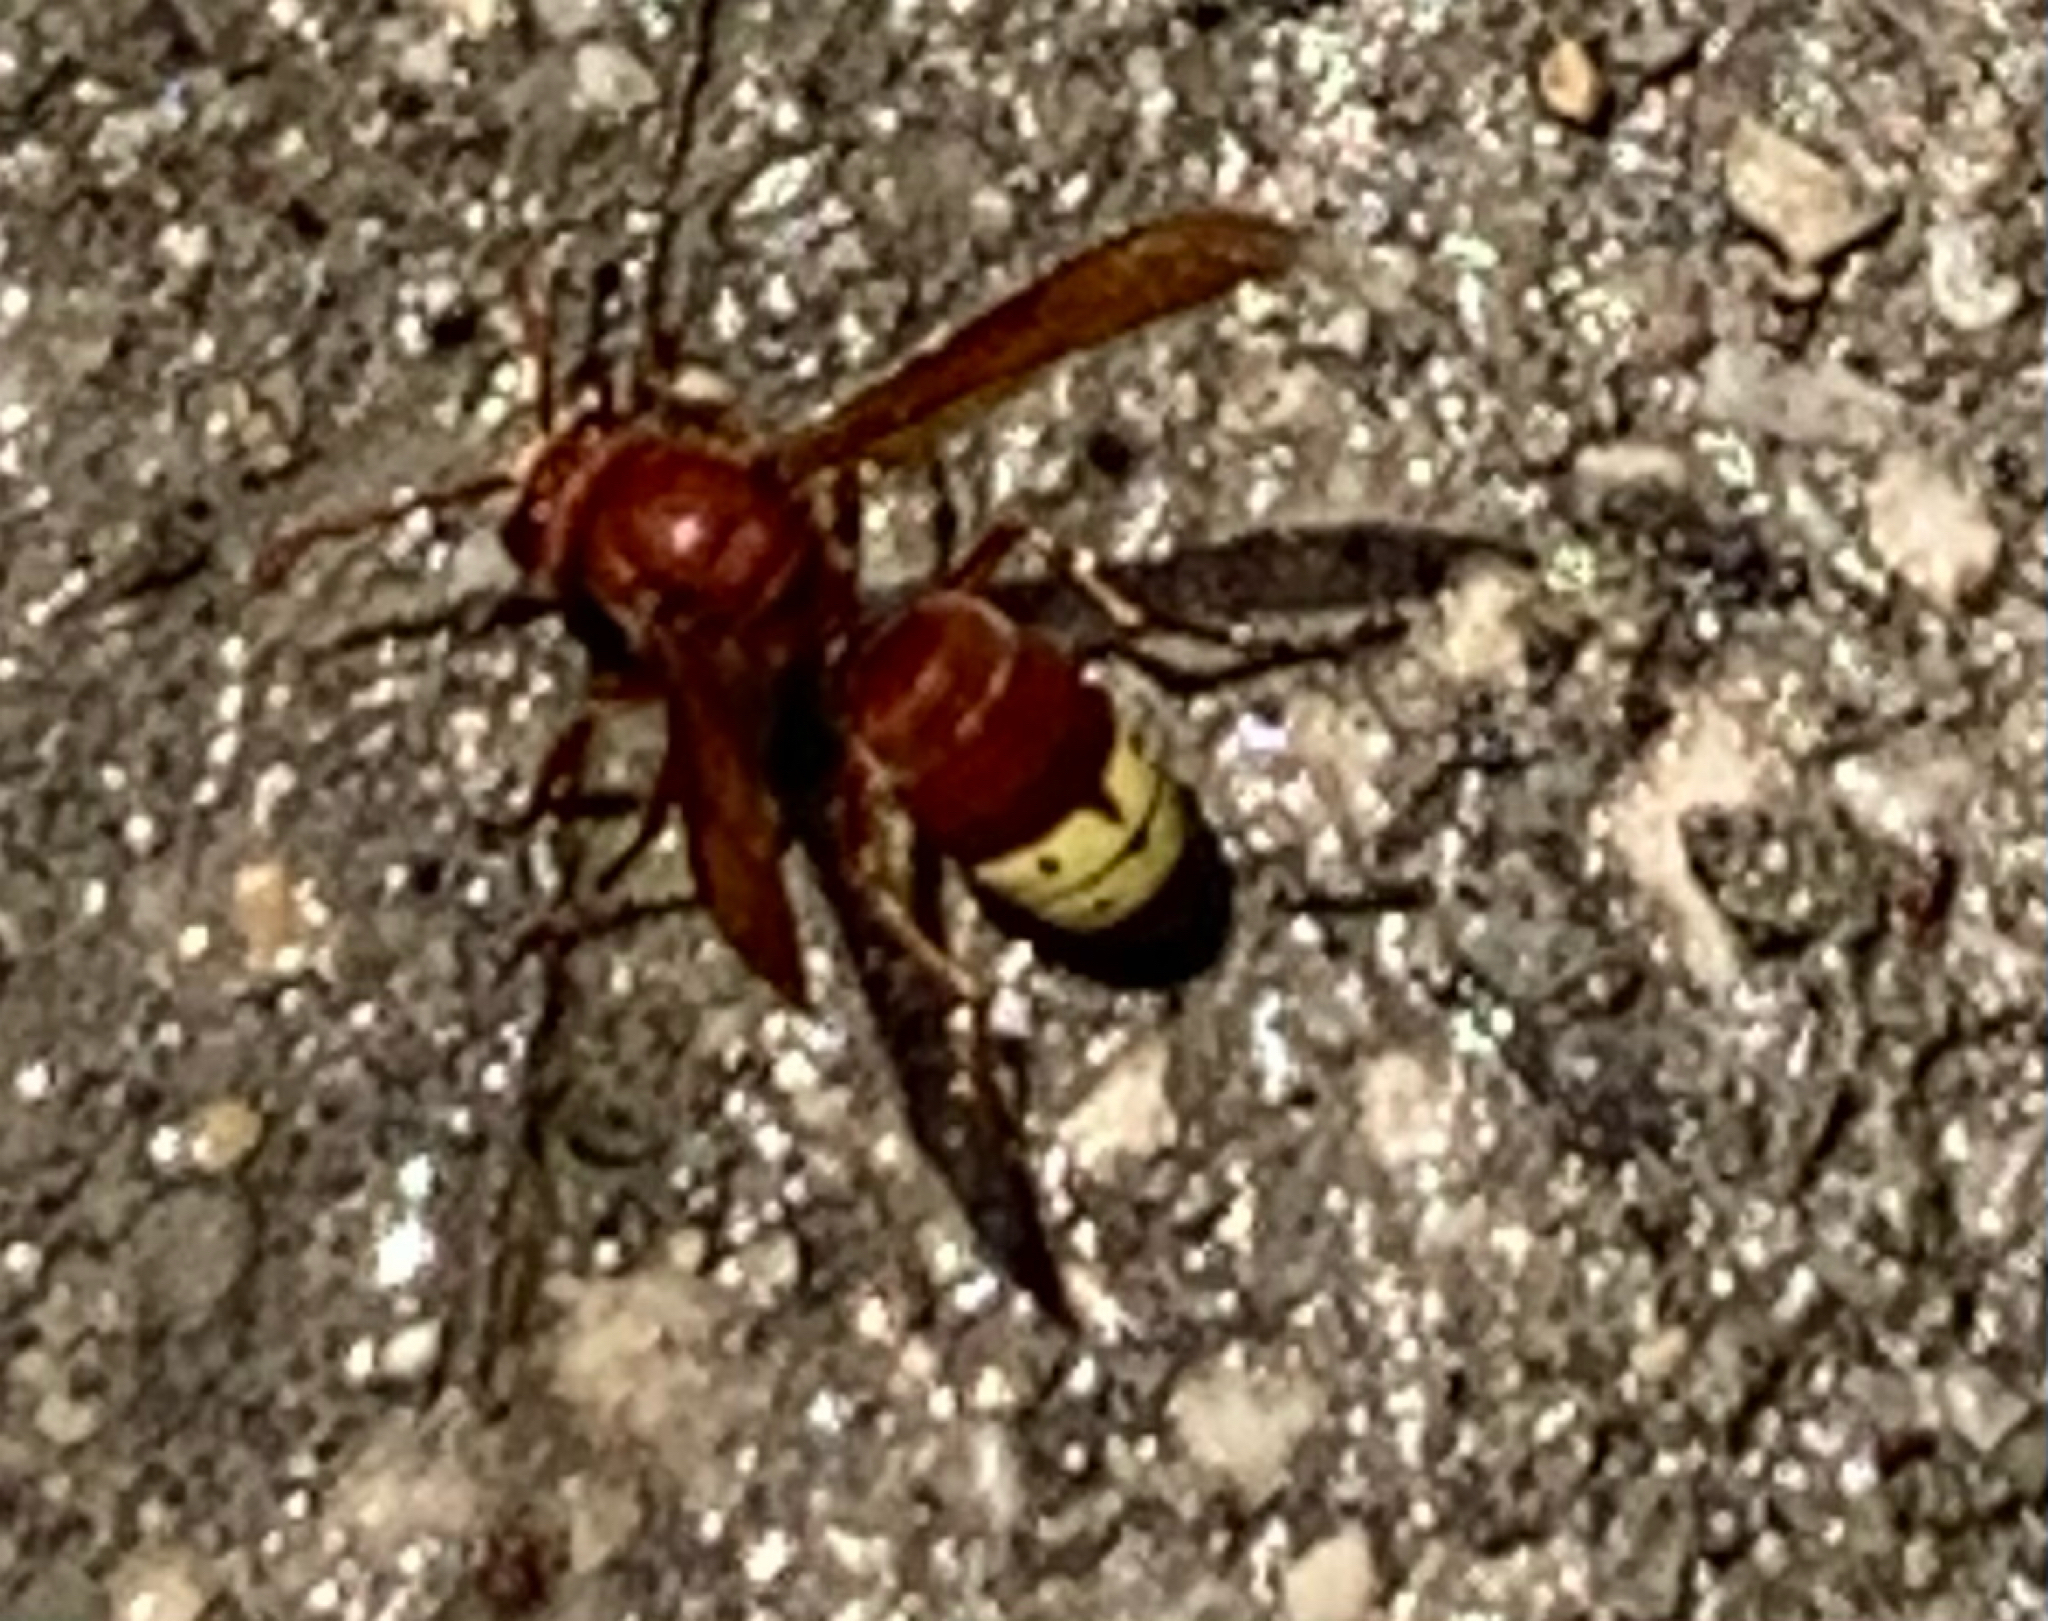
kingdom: Animalia
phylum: Arthropoda
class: Insecta
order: Hymenoptera
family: Vespidae
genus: Vespa
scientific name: Vespa orientalis
